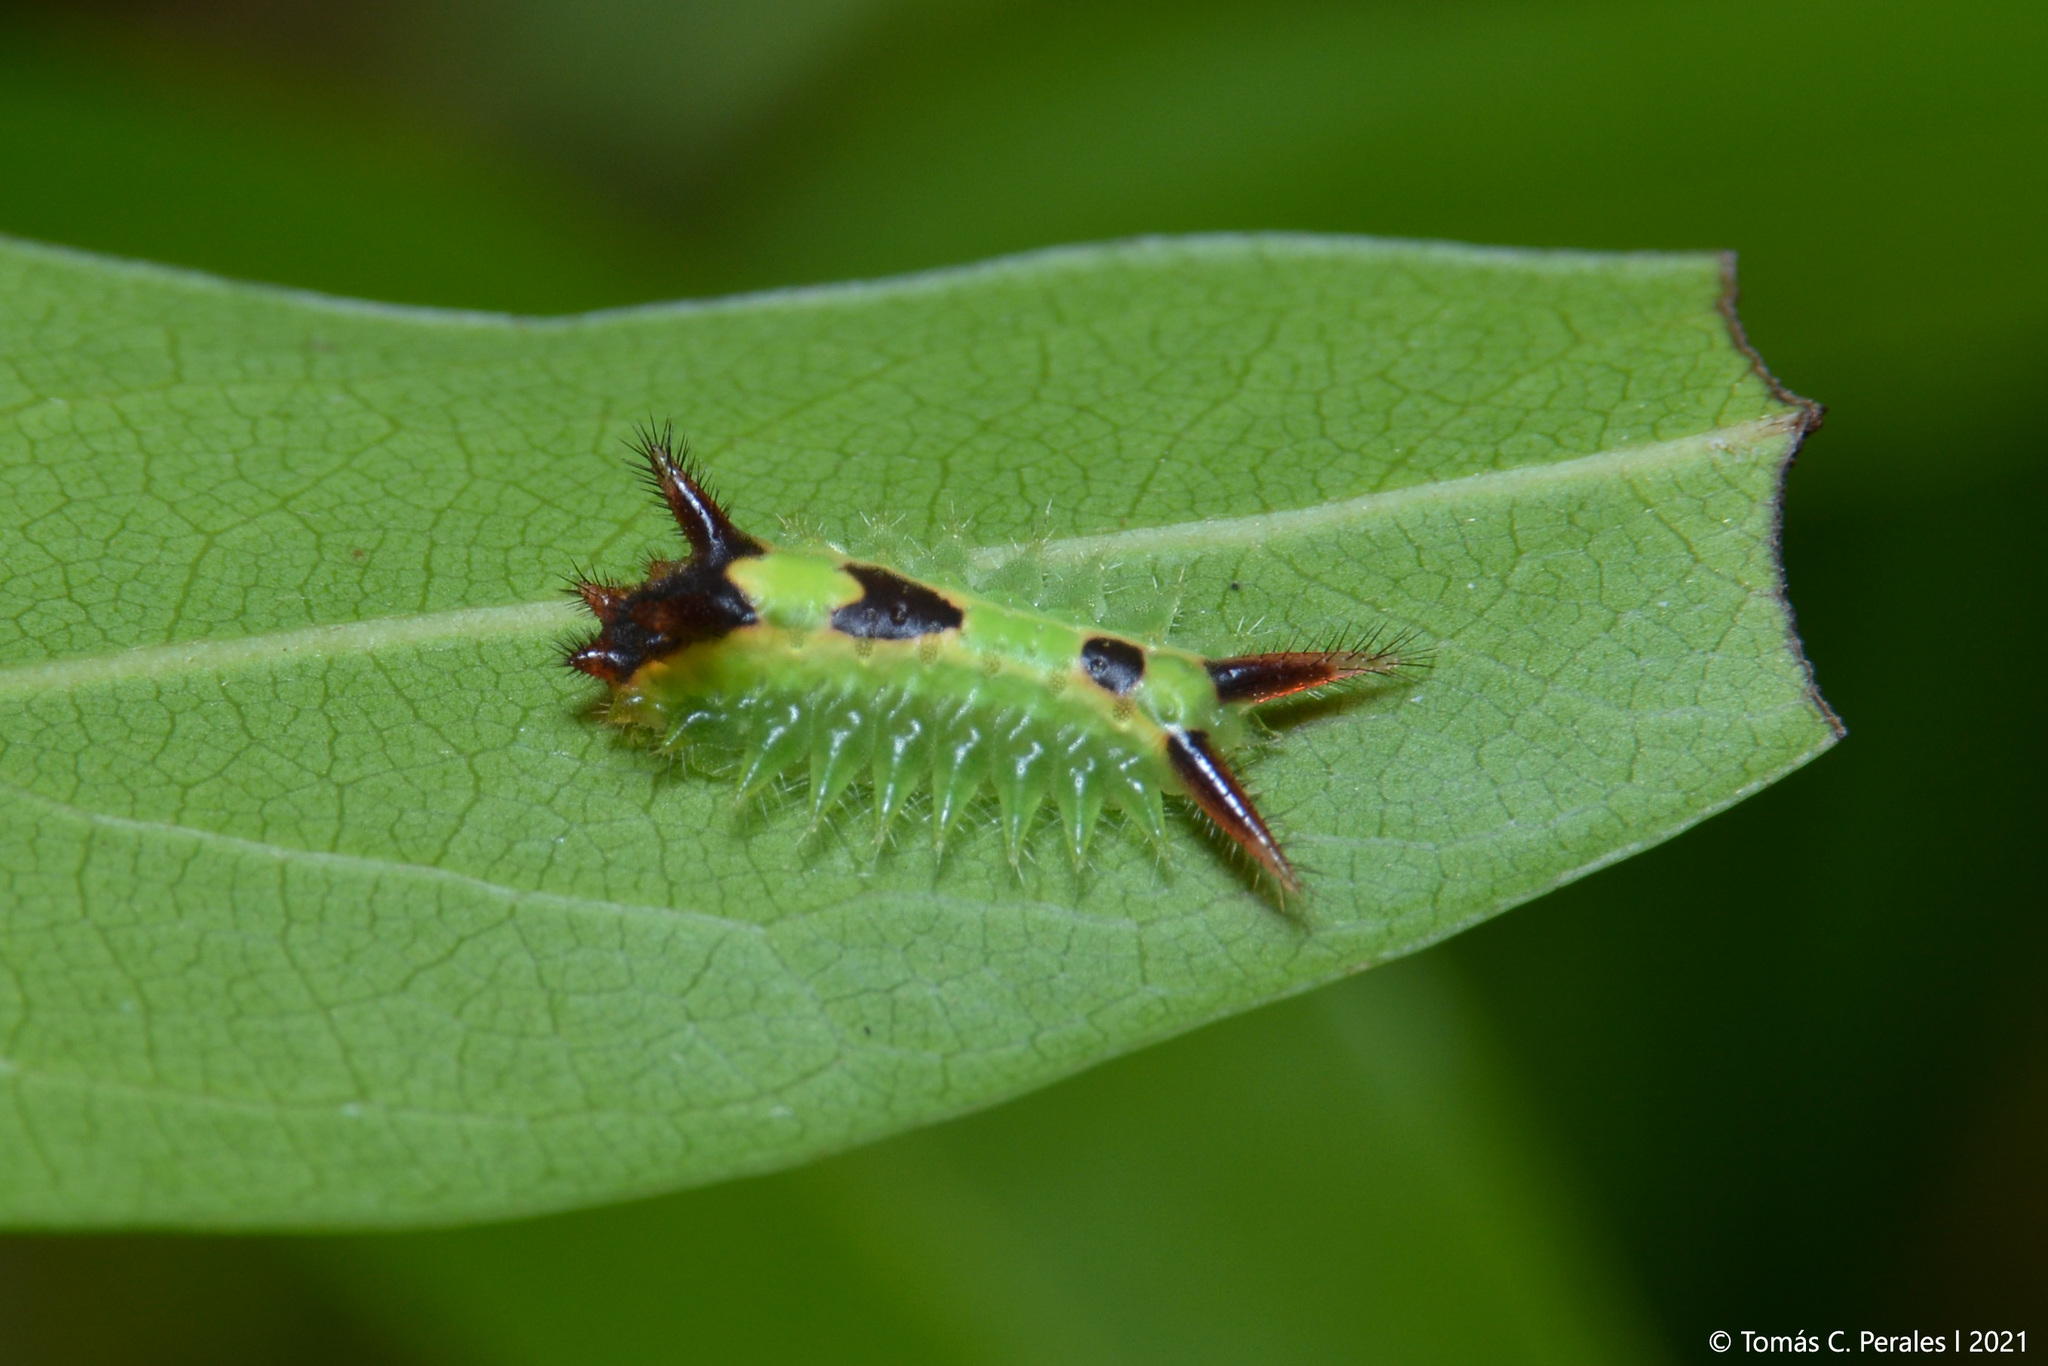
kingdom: Animalia
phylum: Arthropoda
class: Insecta
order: Lepidoptera
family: Limacodidae
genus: Talima
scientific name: Talima postica
